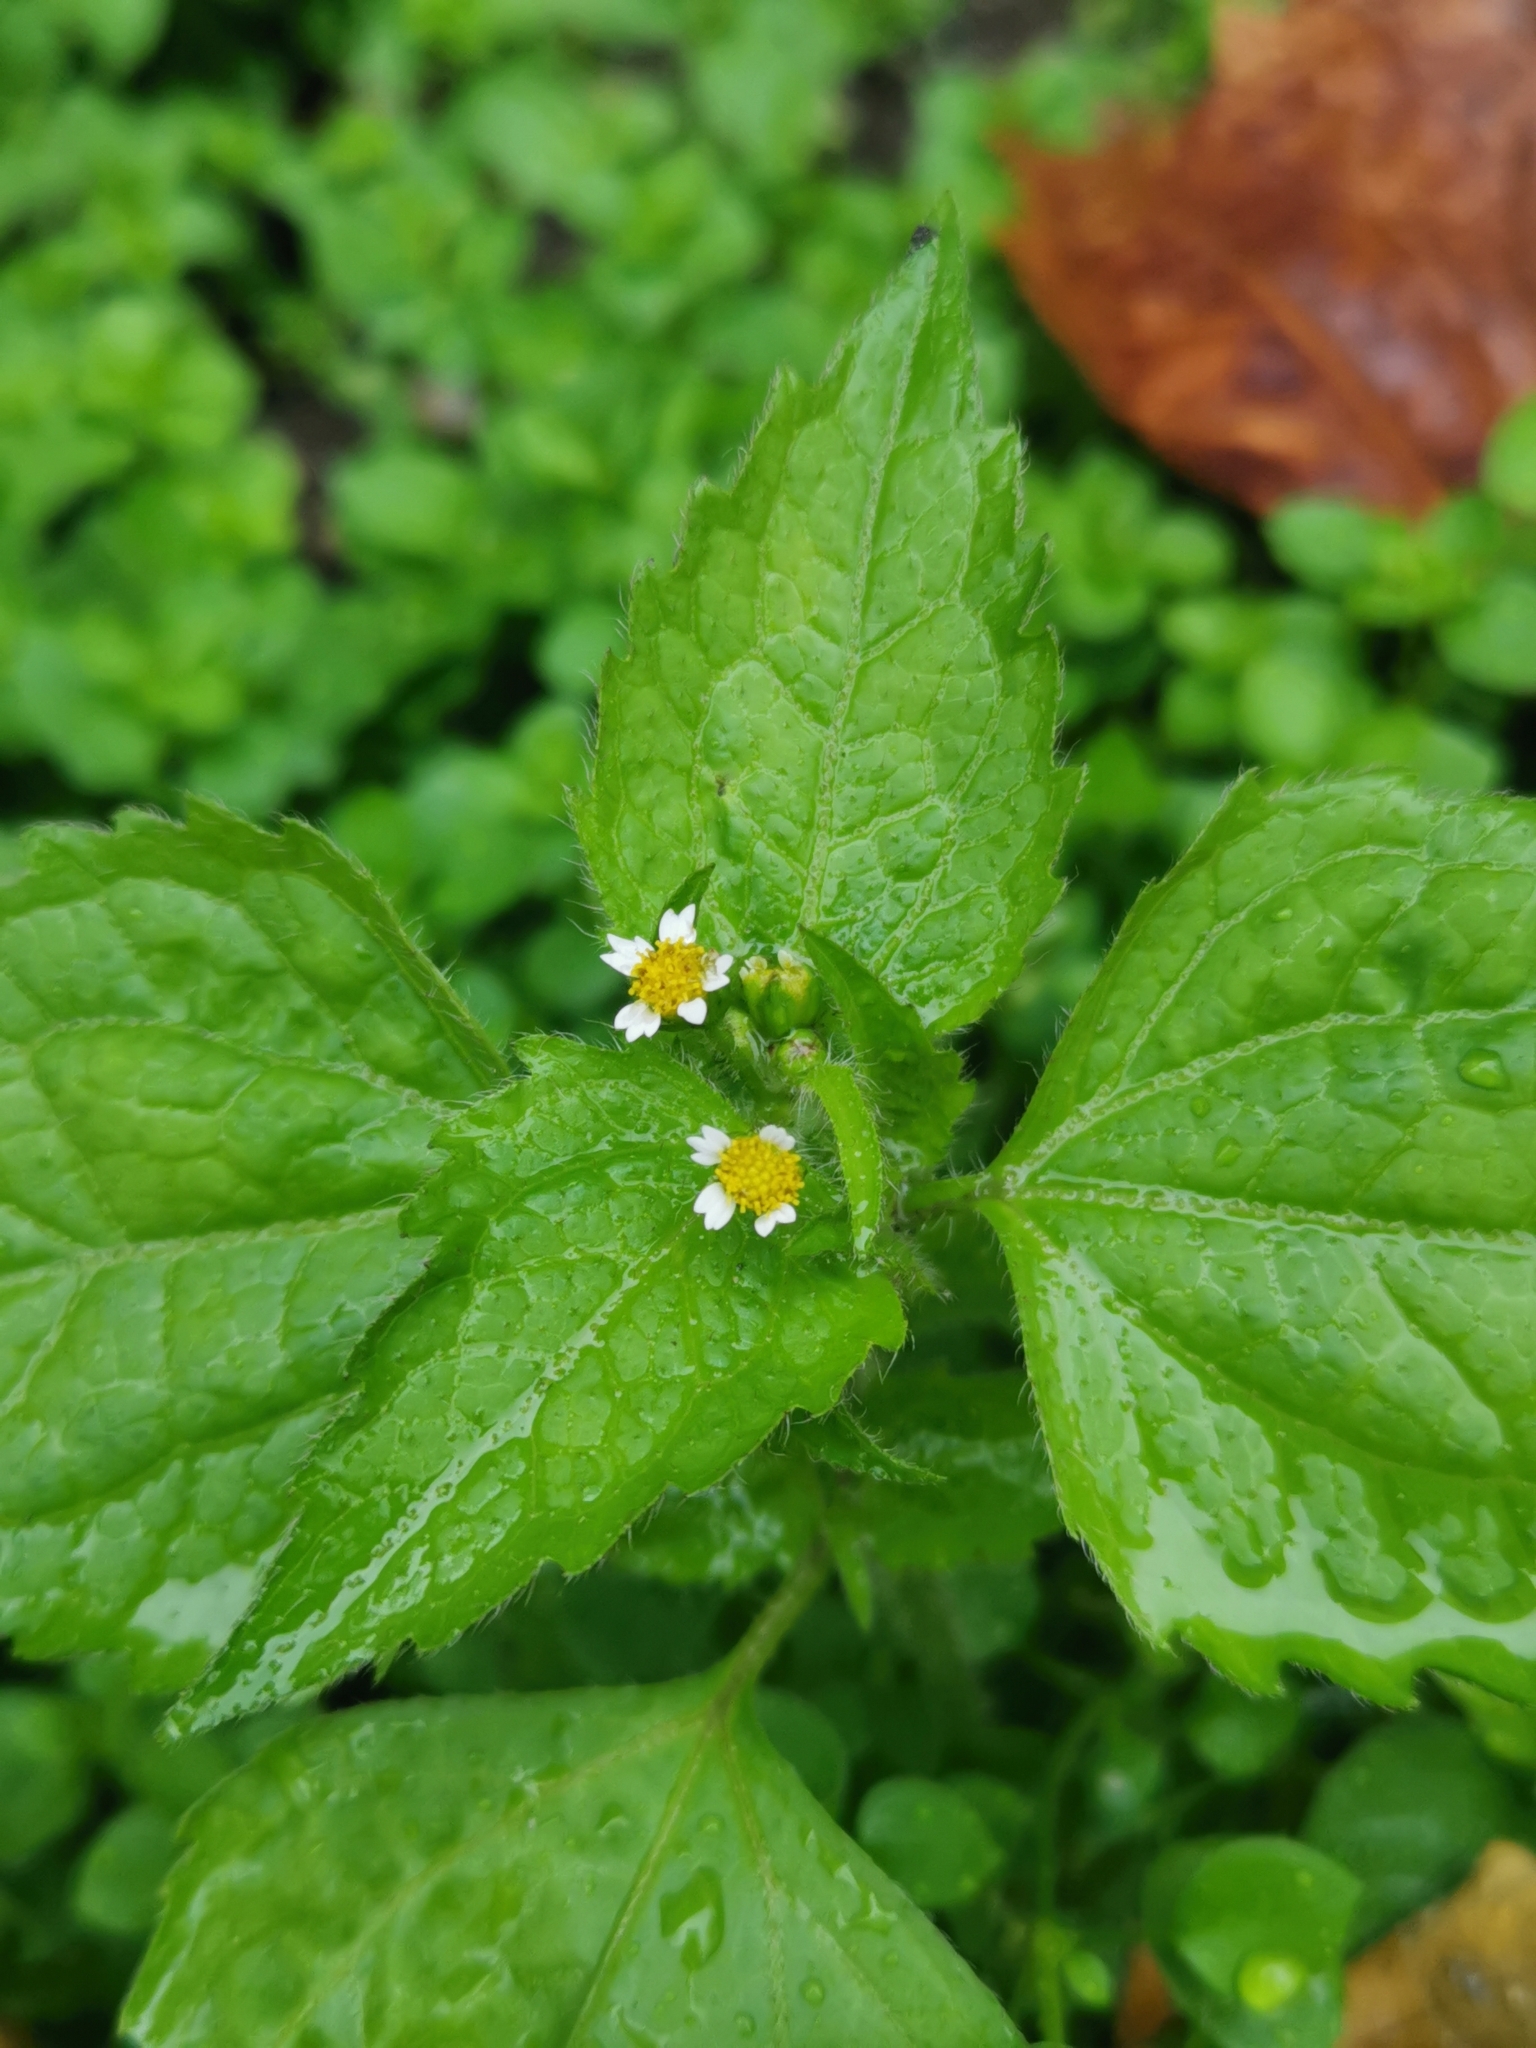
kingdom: Plantae
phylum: Tracheophyta
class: Magnoliopsida
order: Asterales
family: Asteraceae
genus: Galinsoga
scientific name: Galinsoga quadriradiata
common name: Shaggy soldier
